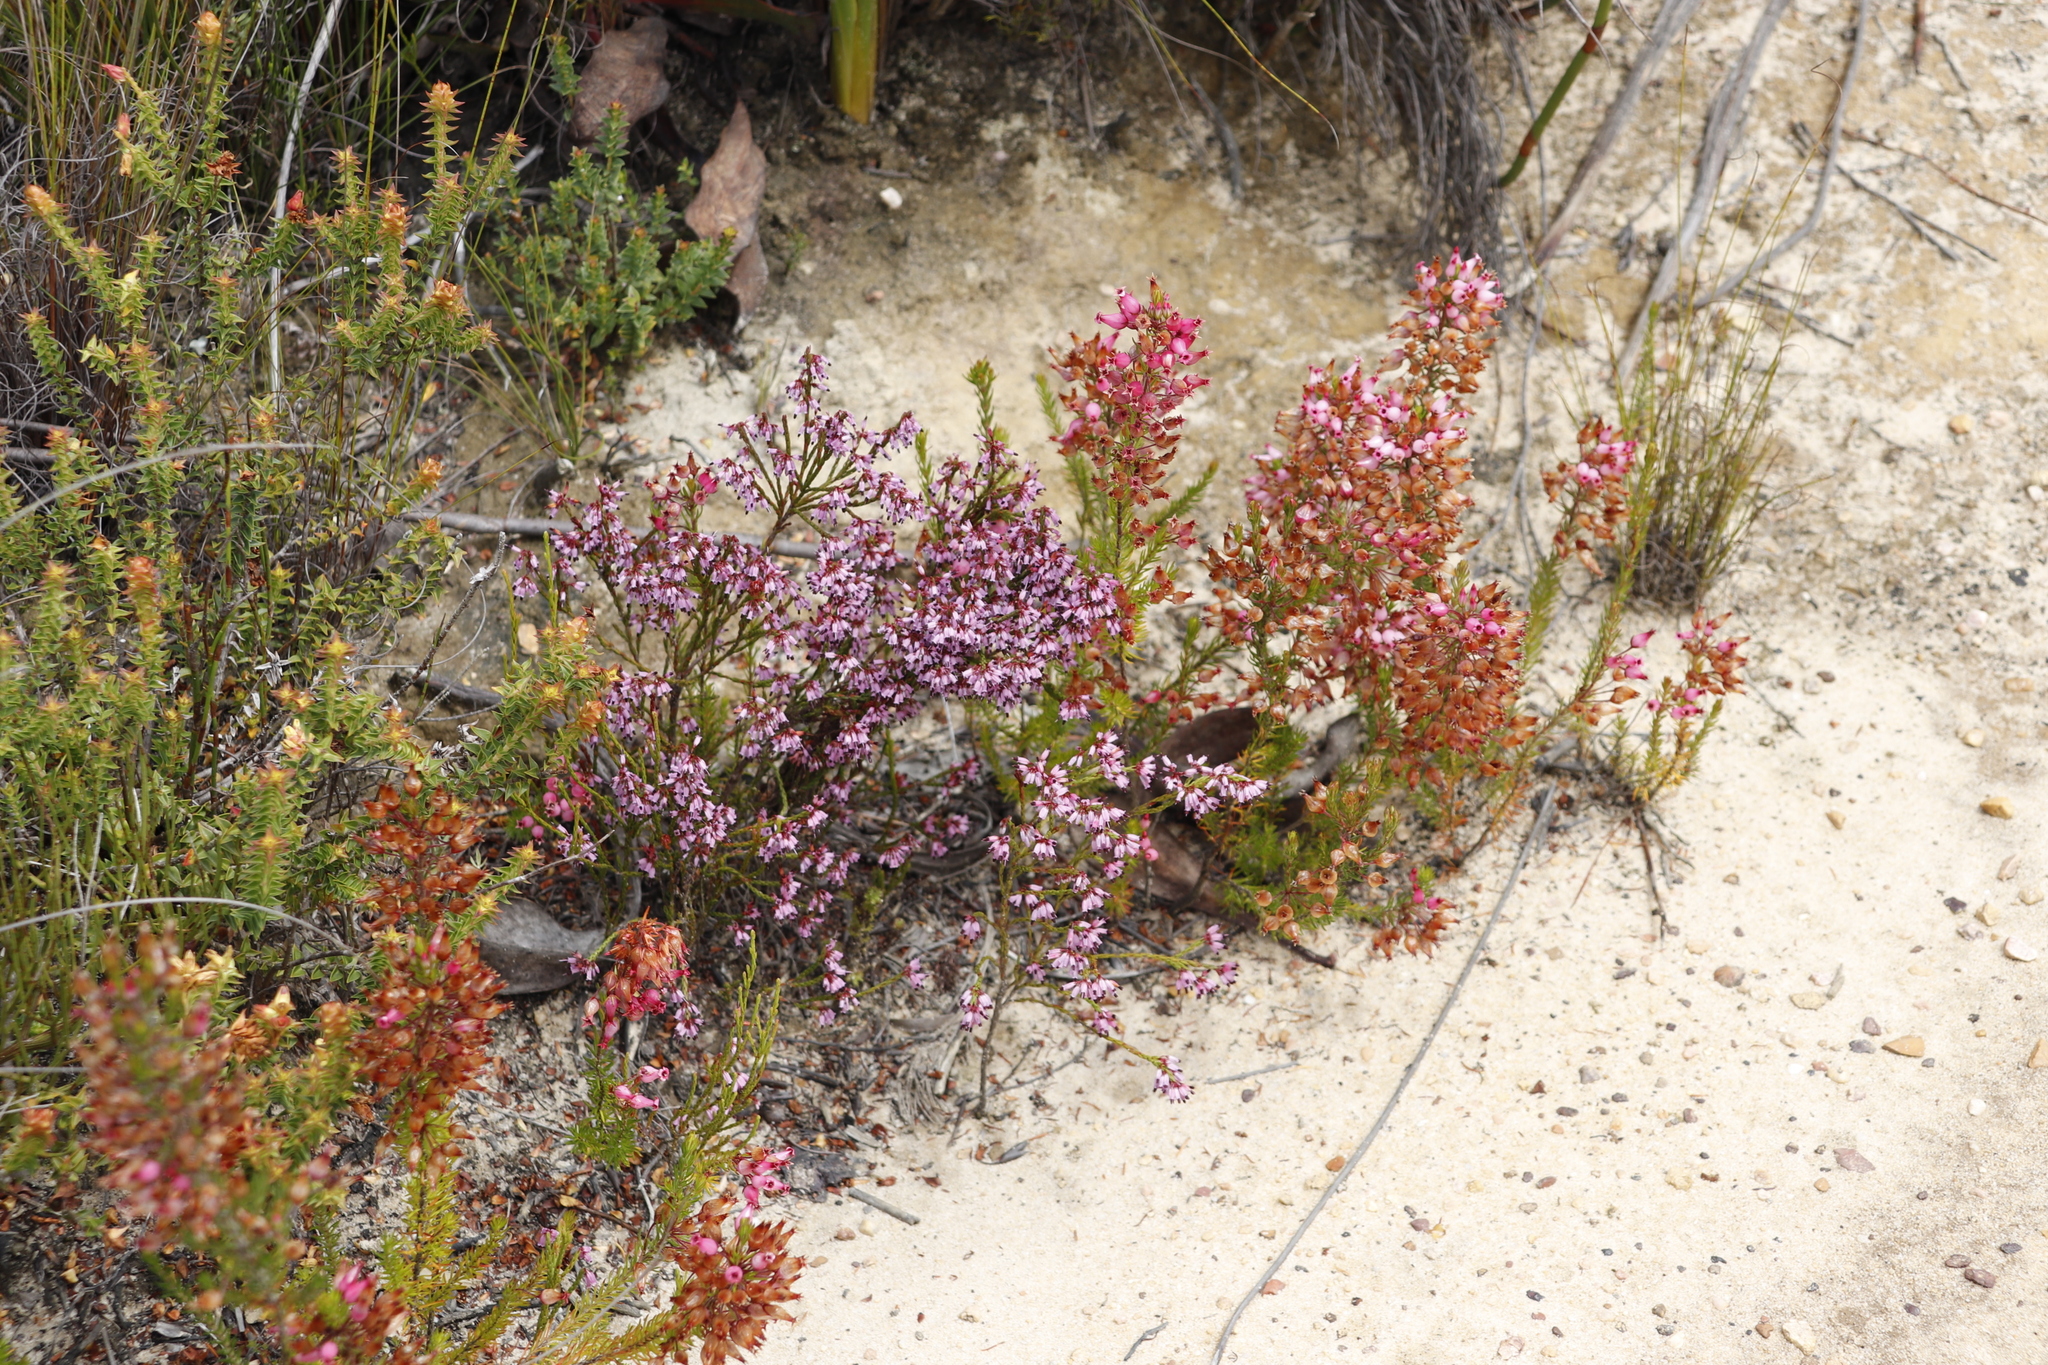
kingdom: Plantae
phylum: Tracheophyta
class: Magnoliopsida
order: Ericales
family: Ericaceae
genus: Erica
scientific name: Erica equisetifolia
